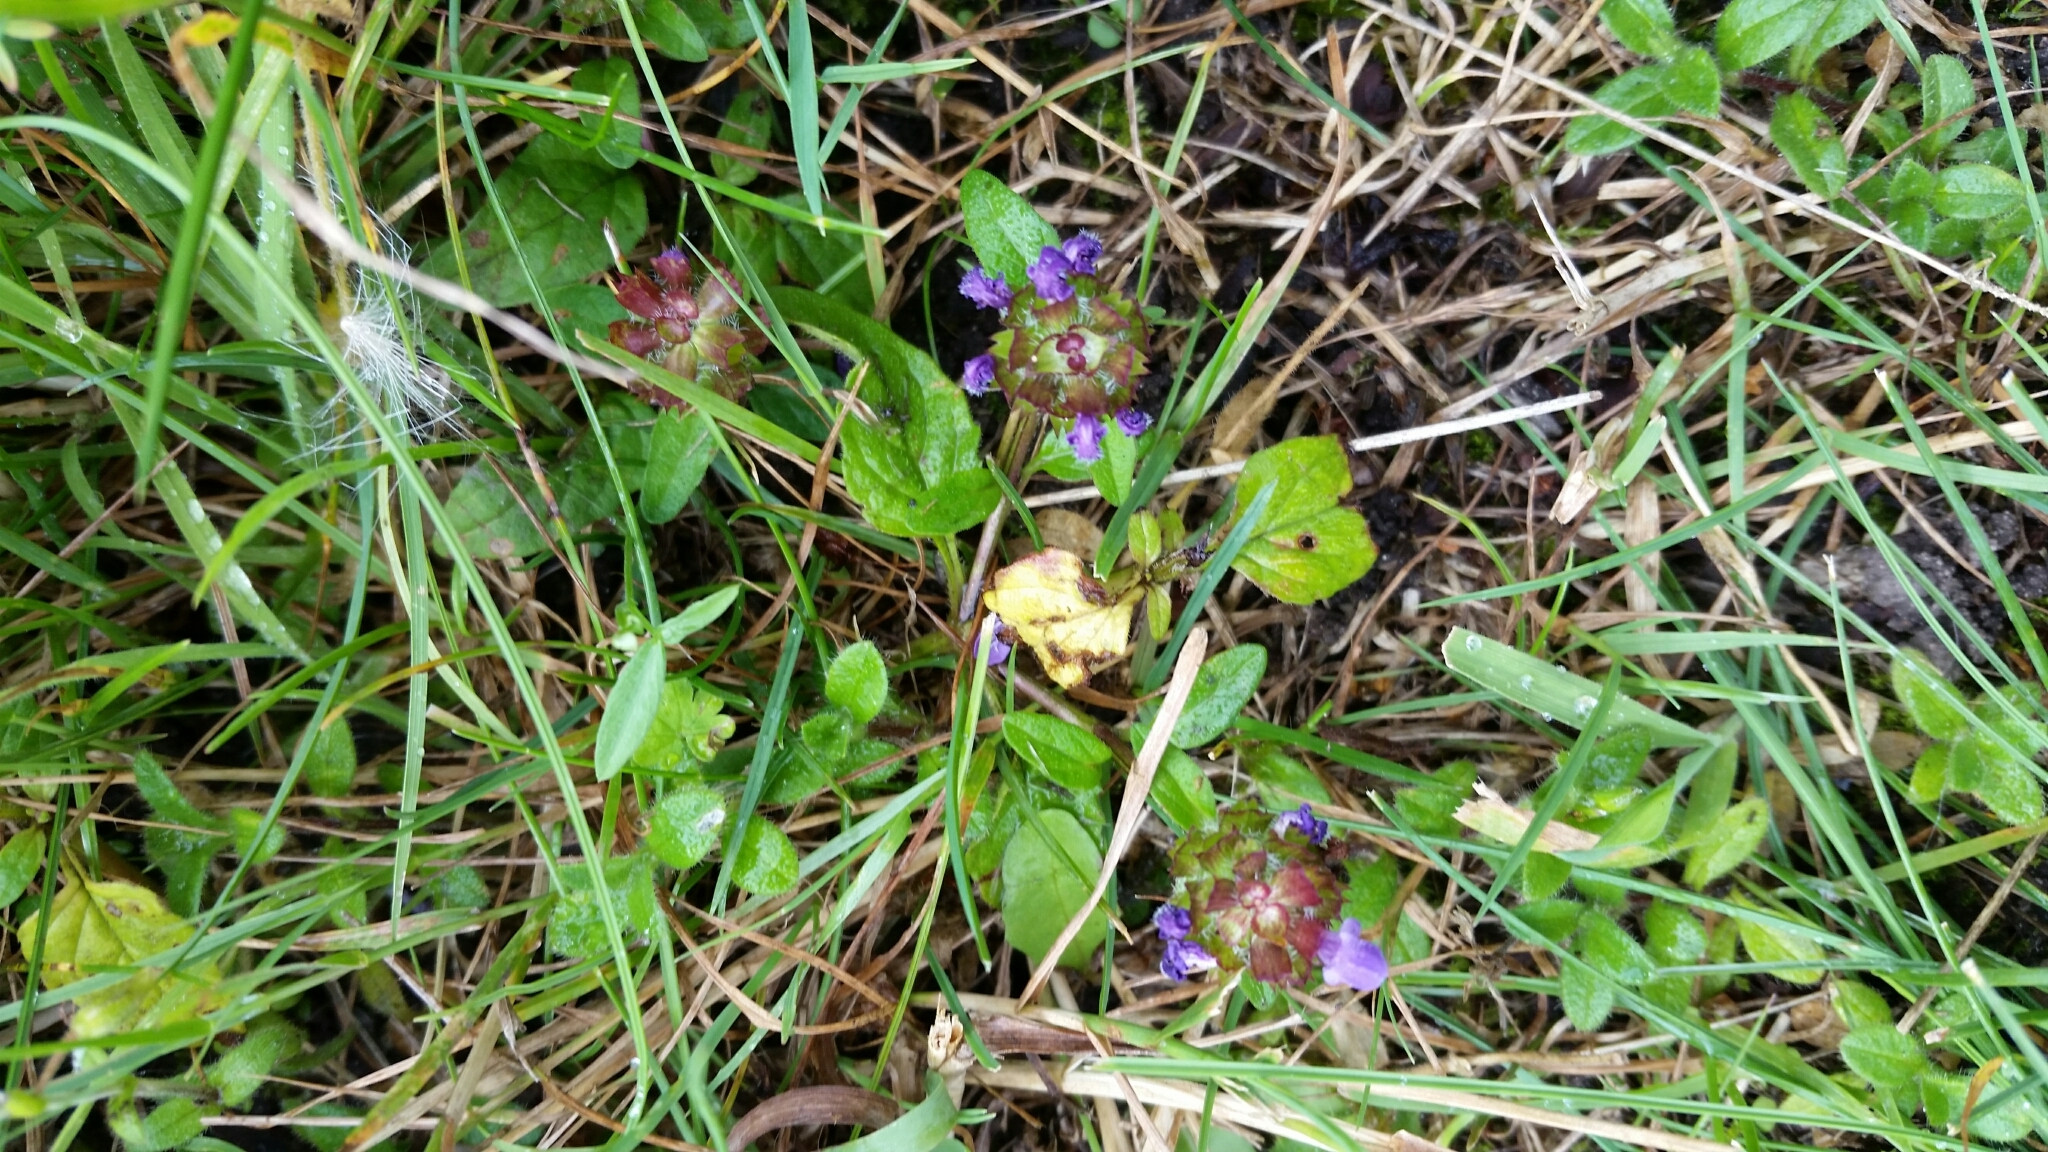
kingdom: Plantae
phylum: Tracheophyta
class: Magnoliopsida
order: Lamiales
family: Lamiaceae
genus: Prunella
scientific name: Prunella vulgaris
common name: Heal-all
